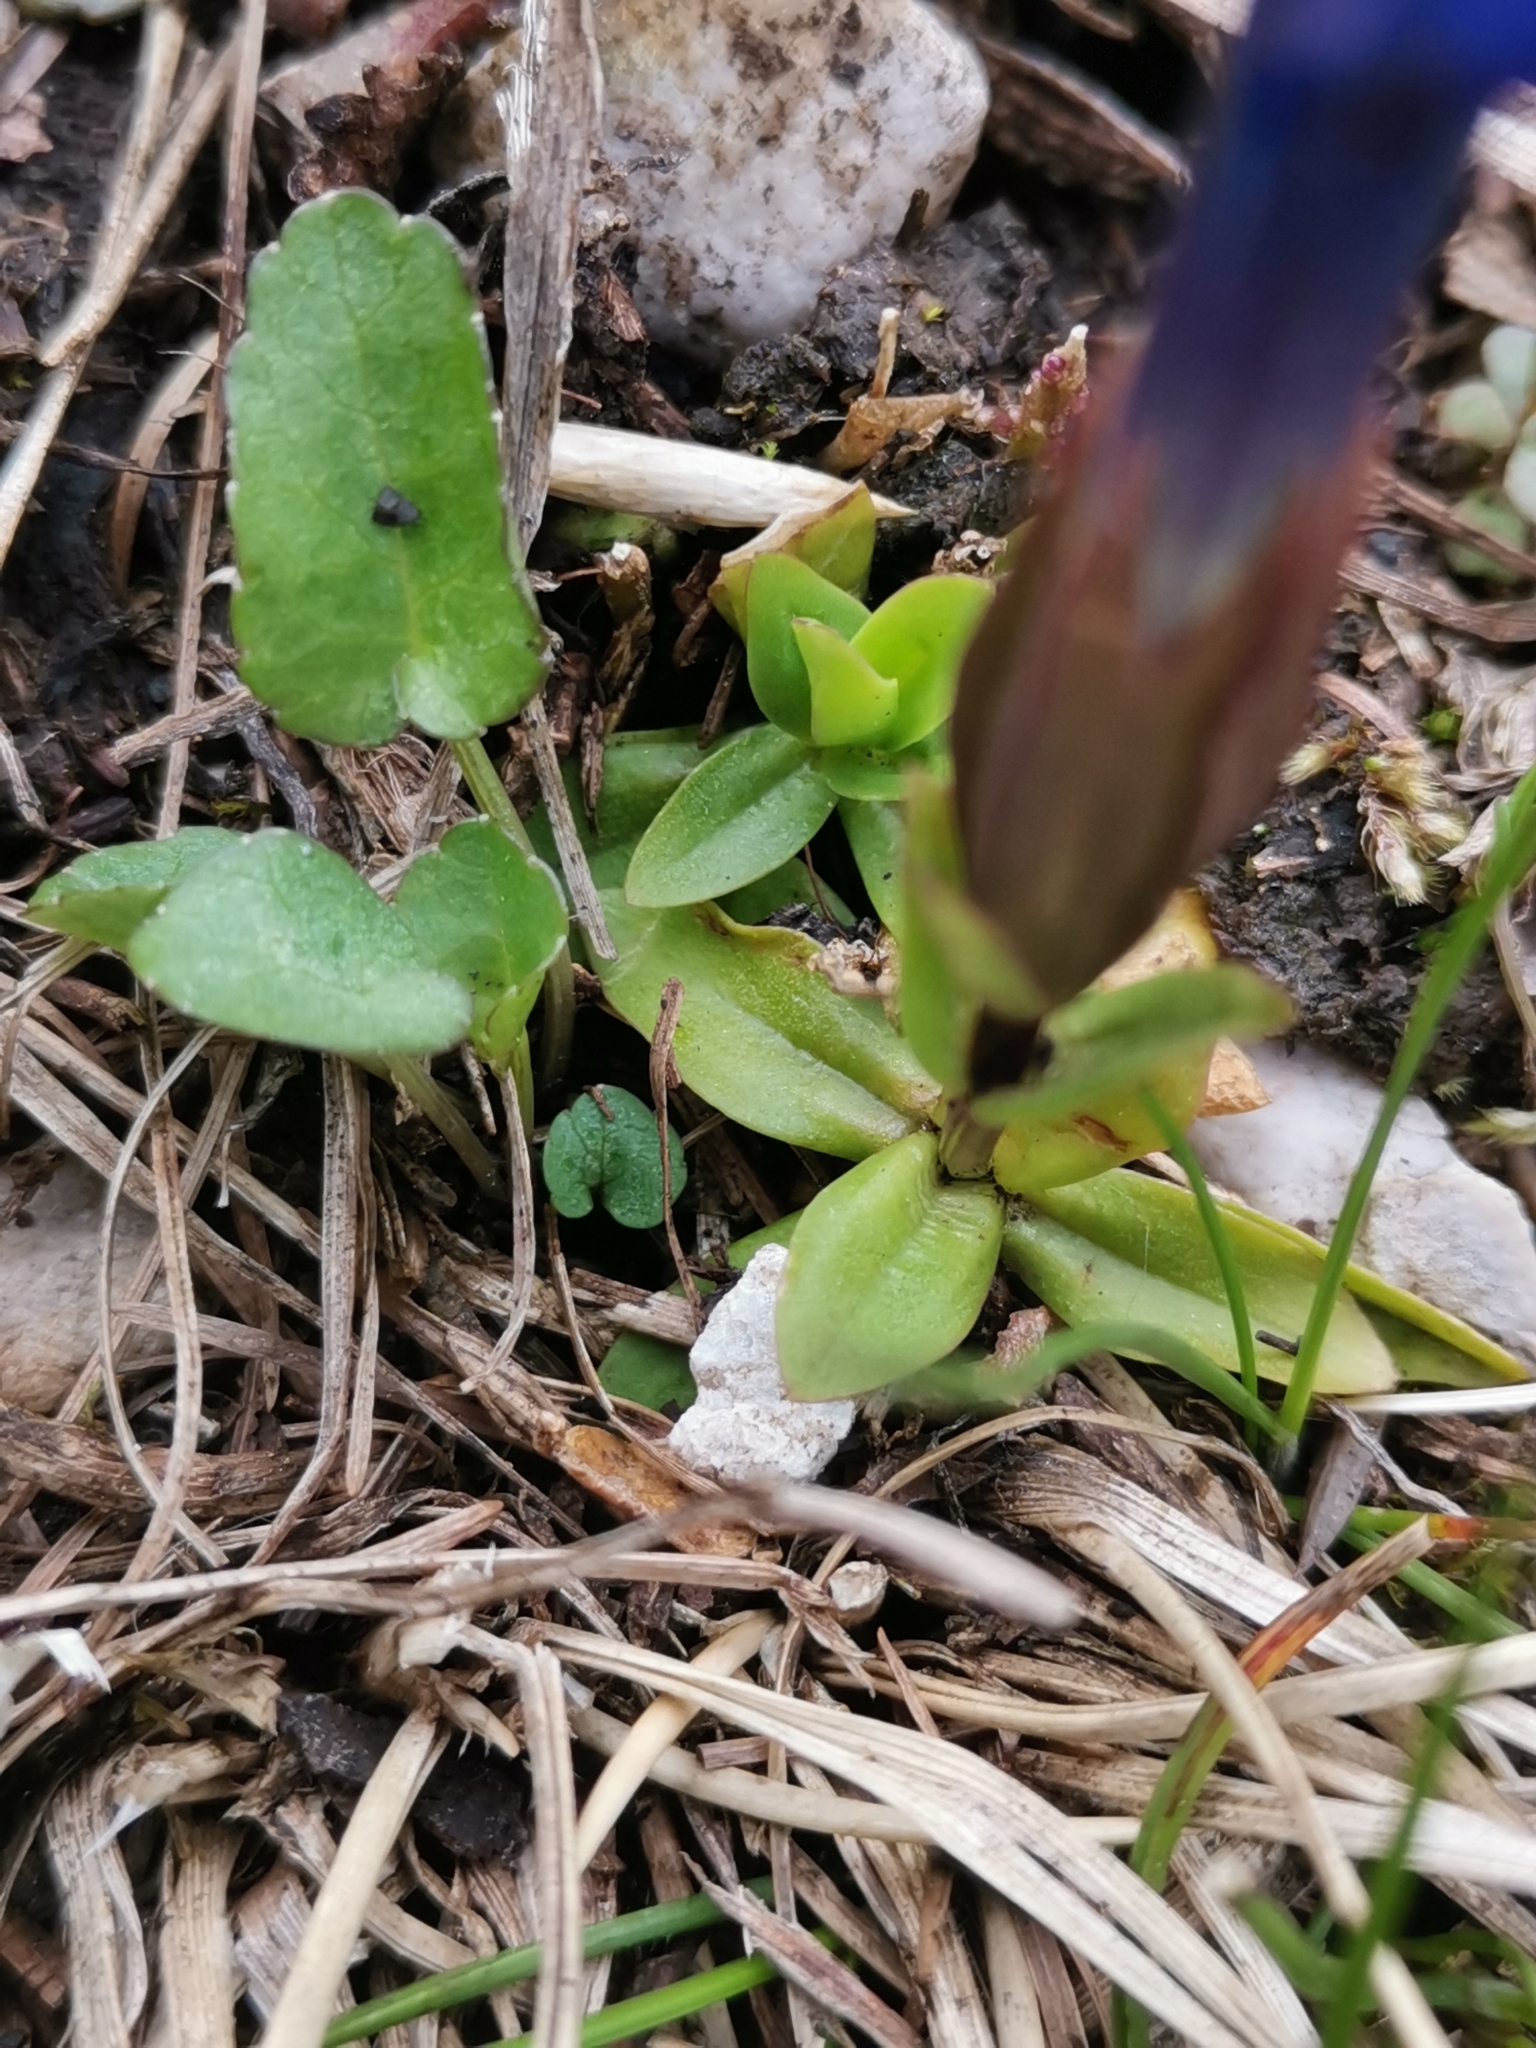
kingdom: Plantae
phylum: Tracheophyta
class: Magnoliopsida
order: Gentianales
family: Gentianaceae
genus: Gentiana
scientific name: Gentiana verna
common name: Spring gentian
